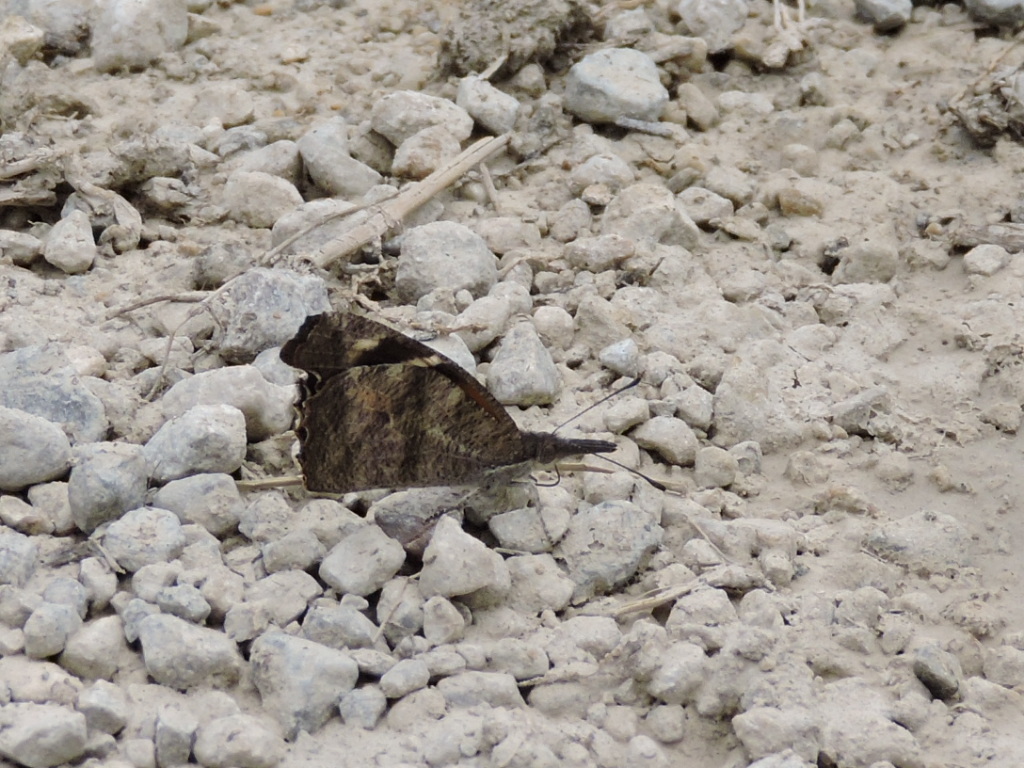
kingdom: Animalia
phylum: Arthropoda
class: Insecta
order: Lepidoptera
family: Nymphalidae
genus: Libytheana
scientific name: Libytheana carinenta
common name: American snout
